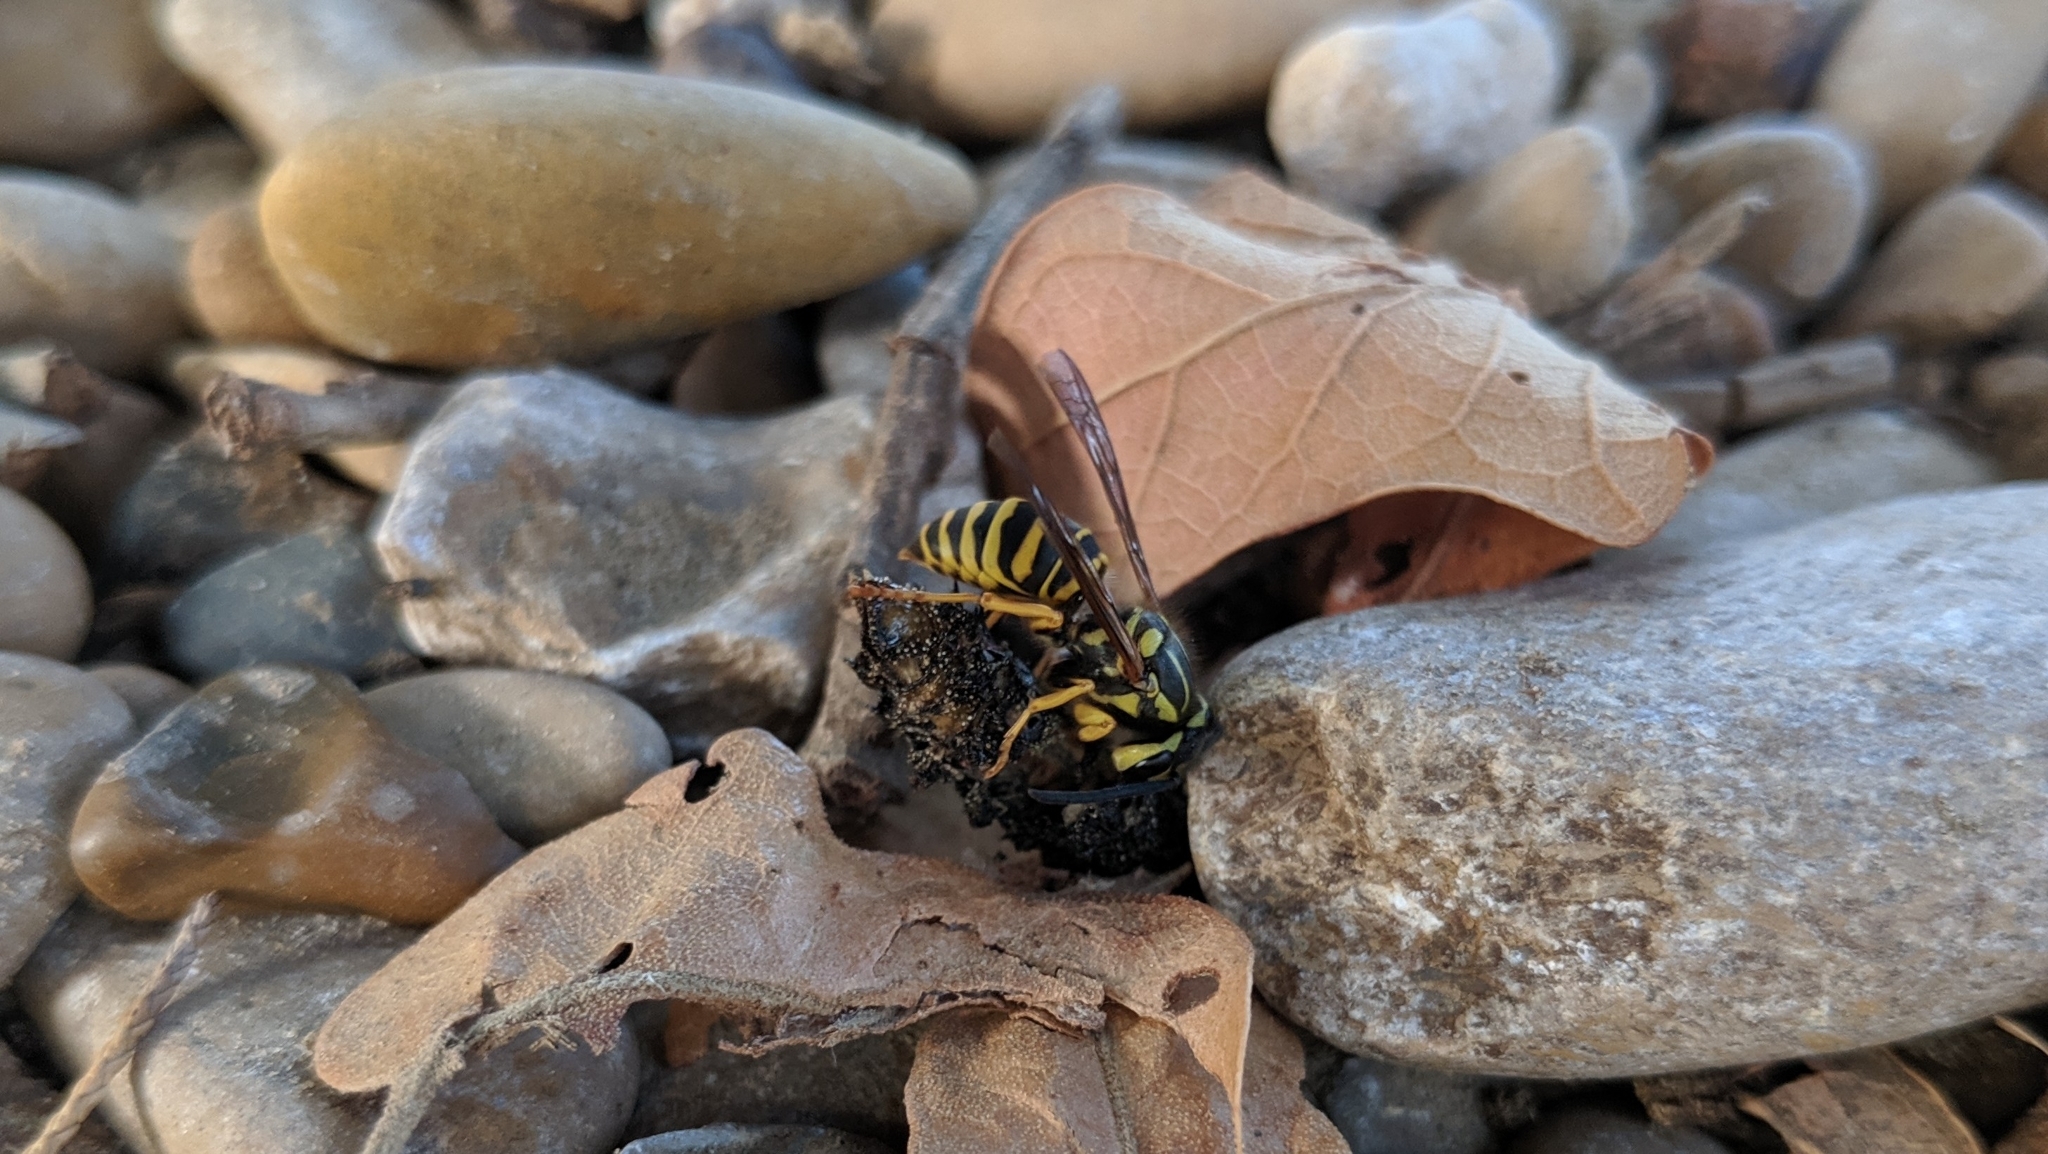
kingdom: Animalia
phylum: Arthropoda
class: Insecta
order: Hymenoptera
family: Vespidae
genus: Vespula
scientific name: Vespula squamosa
